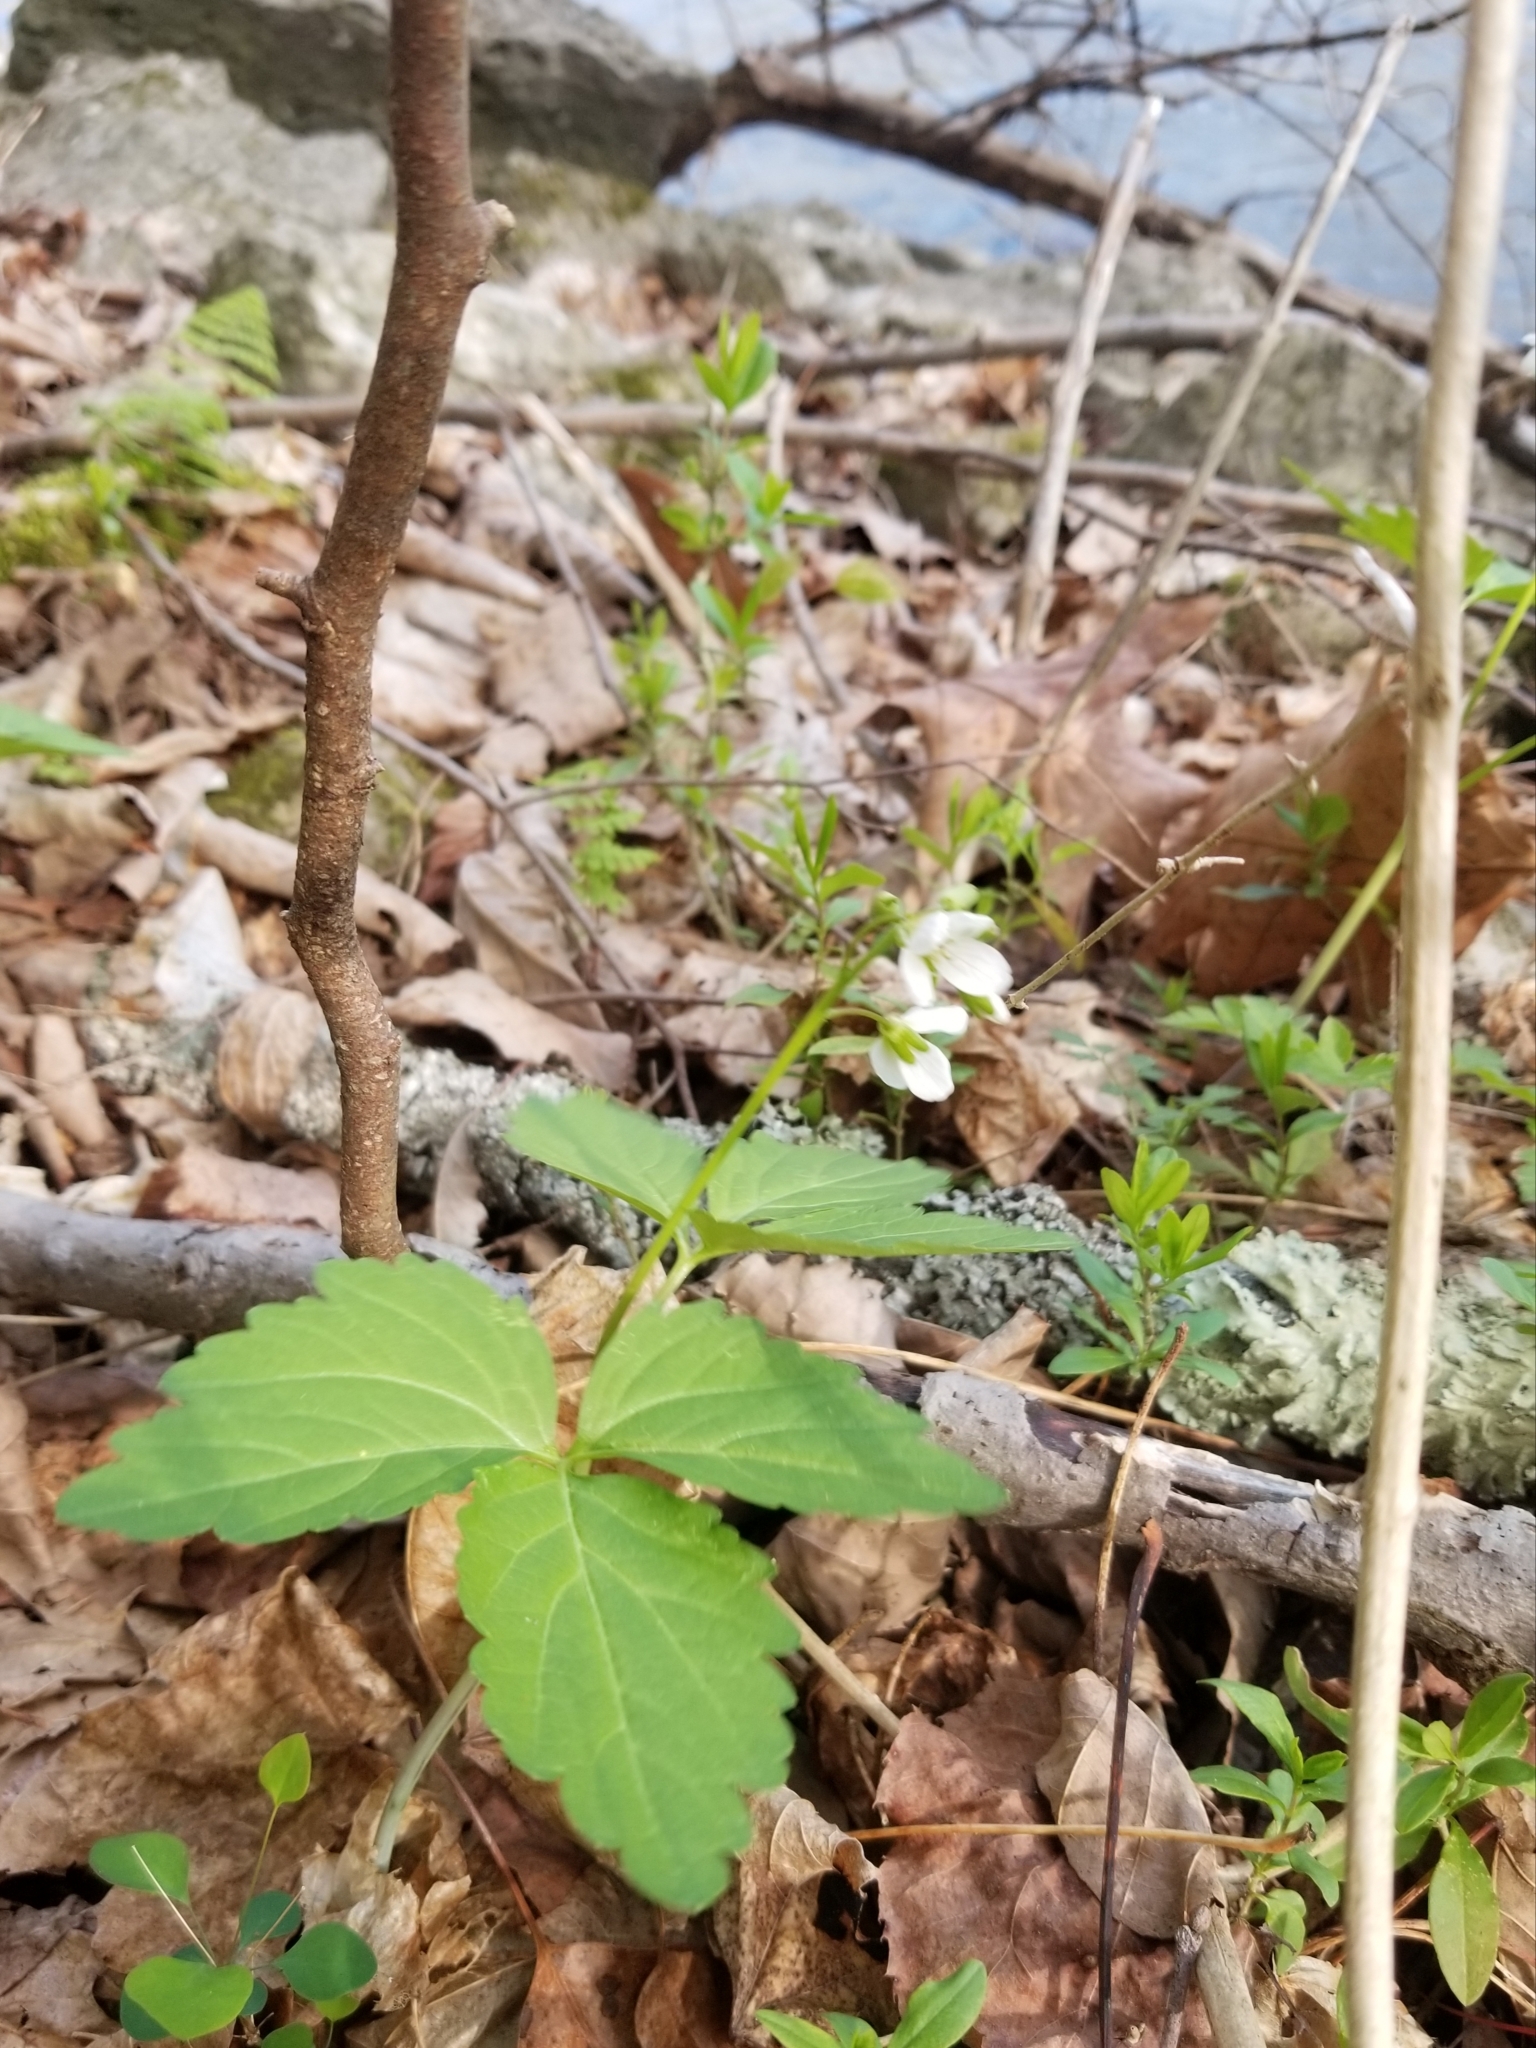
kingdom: Plantae
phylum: Tracheophyta
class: Magnoliopsida
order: Brassicales
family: Brassicaceae
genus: Cardamine
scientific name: Cardamine diphylla
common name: Broad-leaved toothwort
